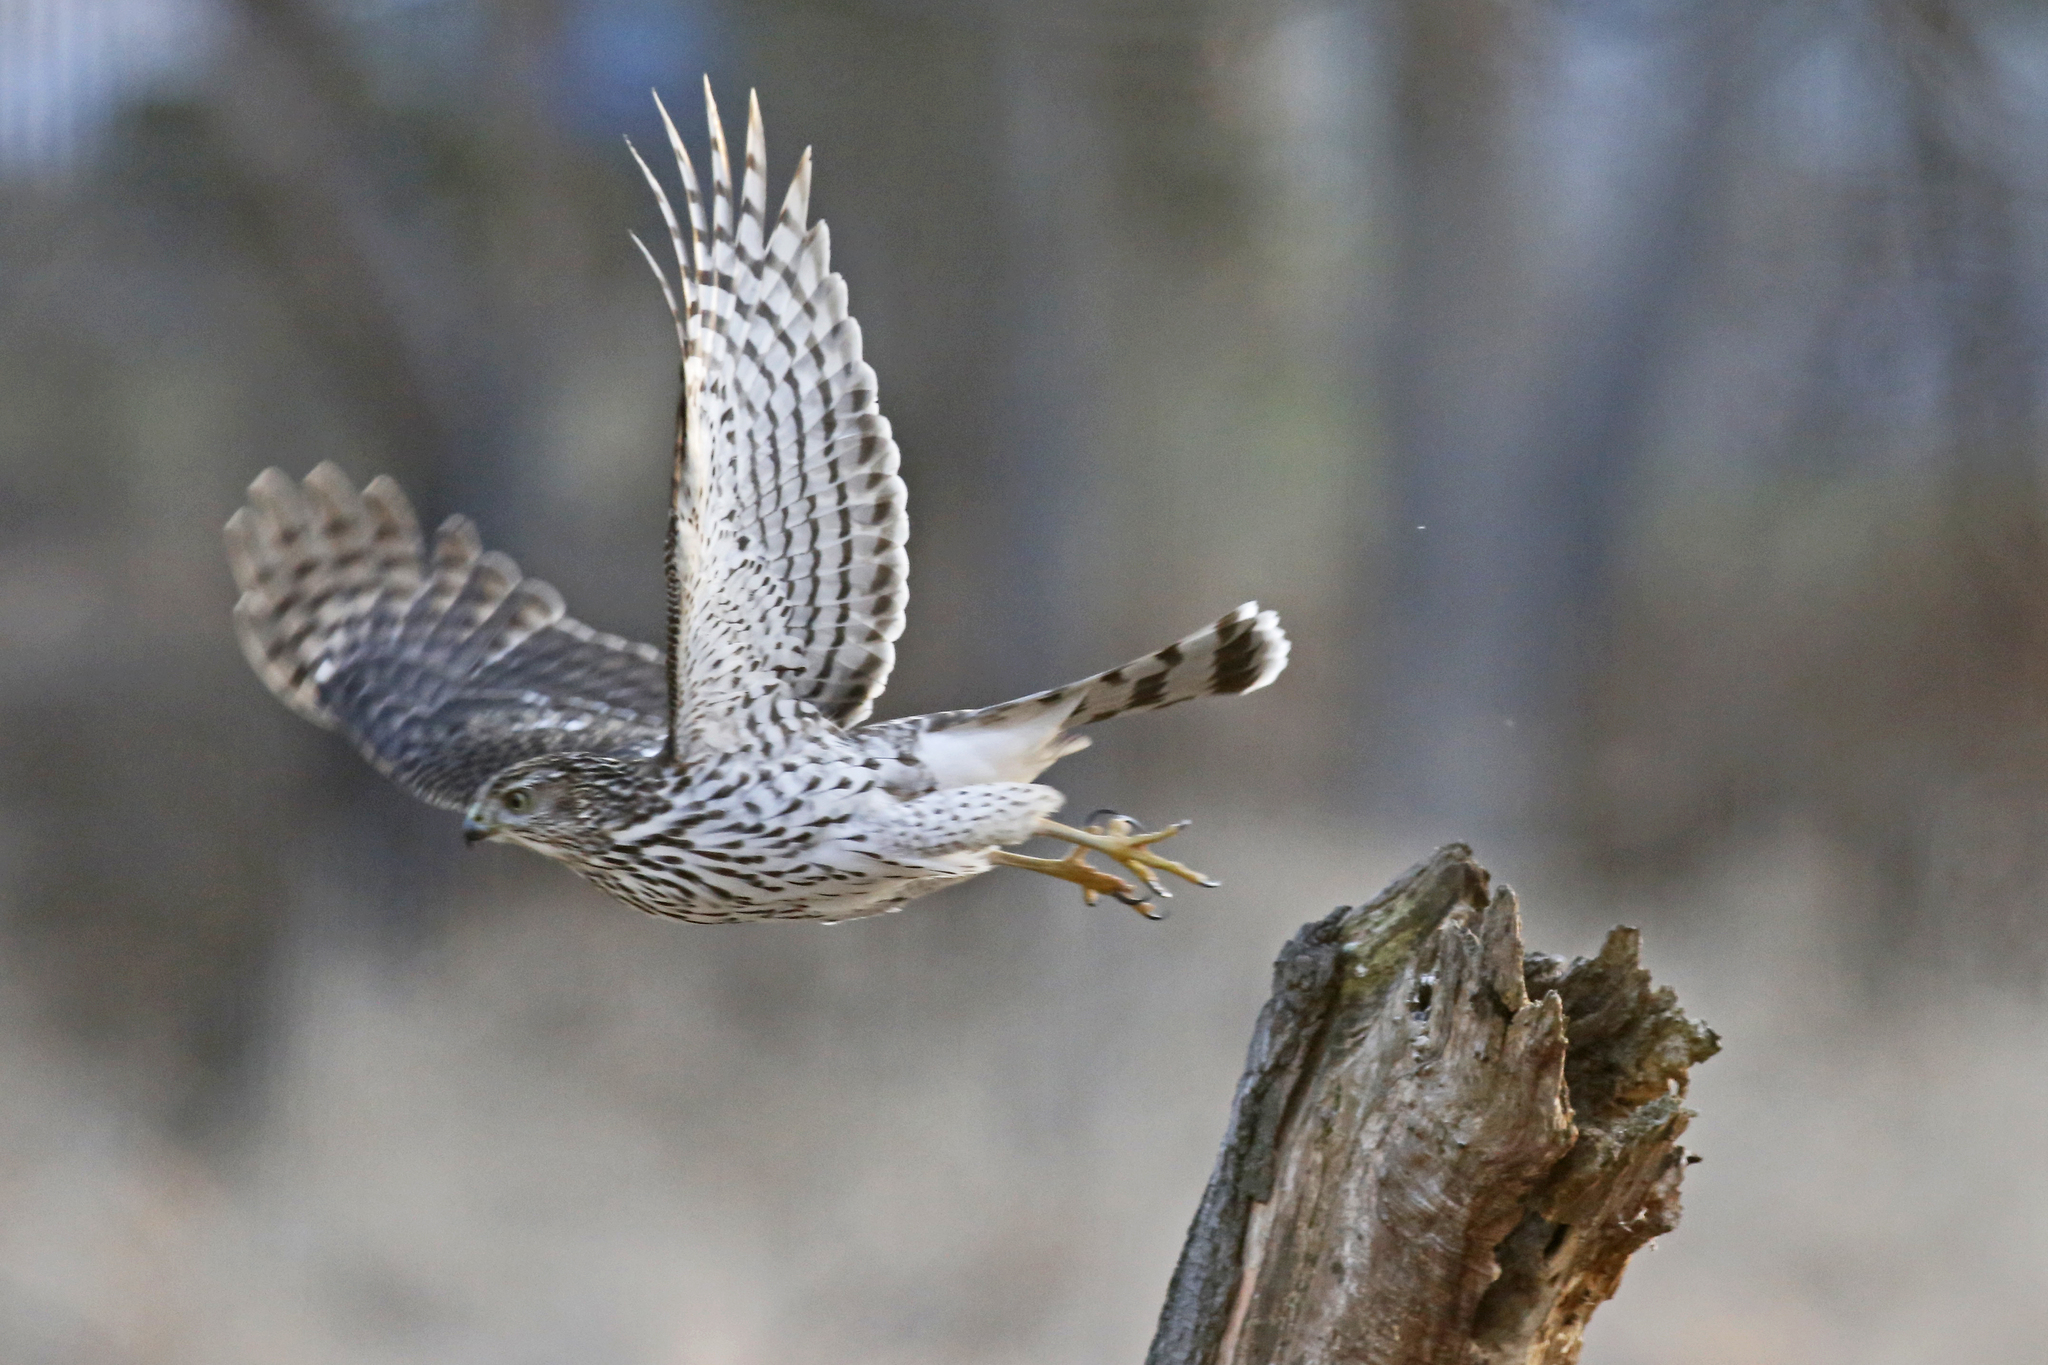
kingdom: Animalia
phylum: Chordata
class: Aves
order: Accipitriformes
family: Accipitridae
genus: Accipiter
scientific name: Accipiter cooperii
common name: Cooper's hawk
